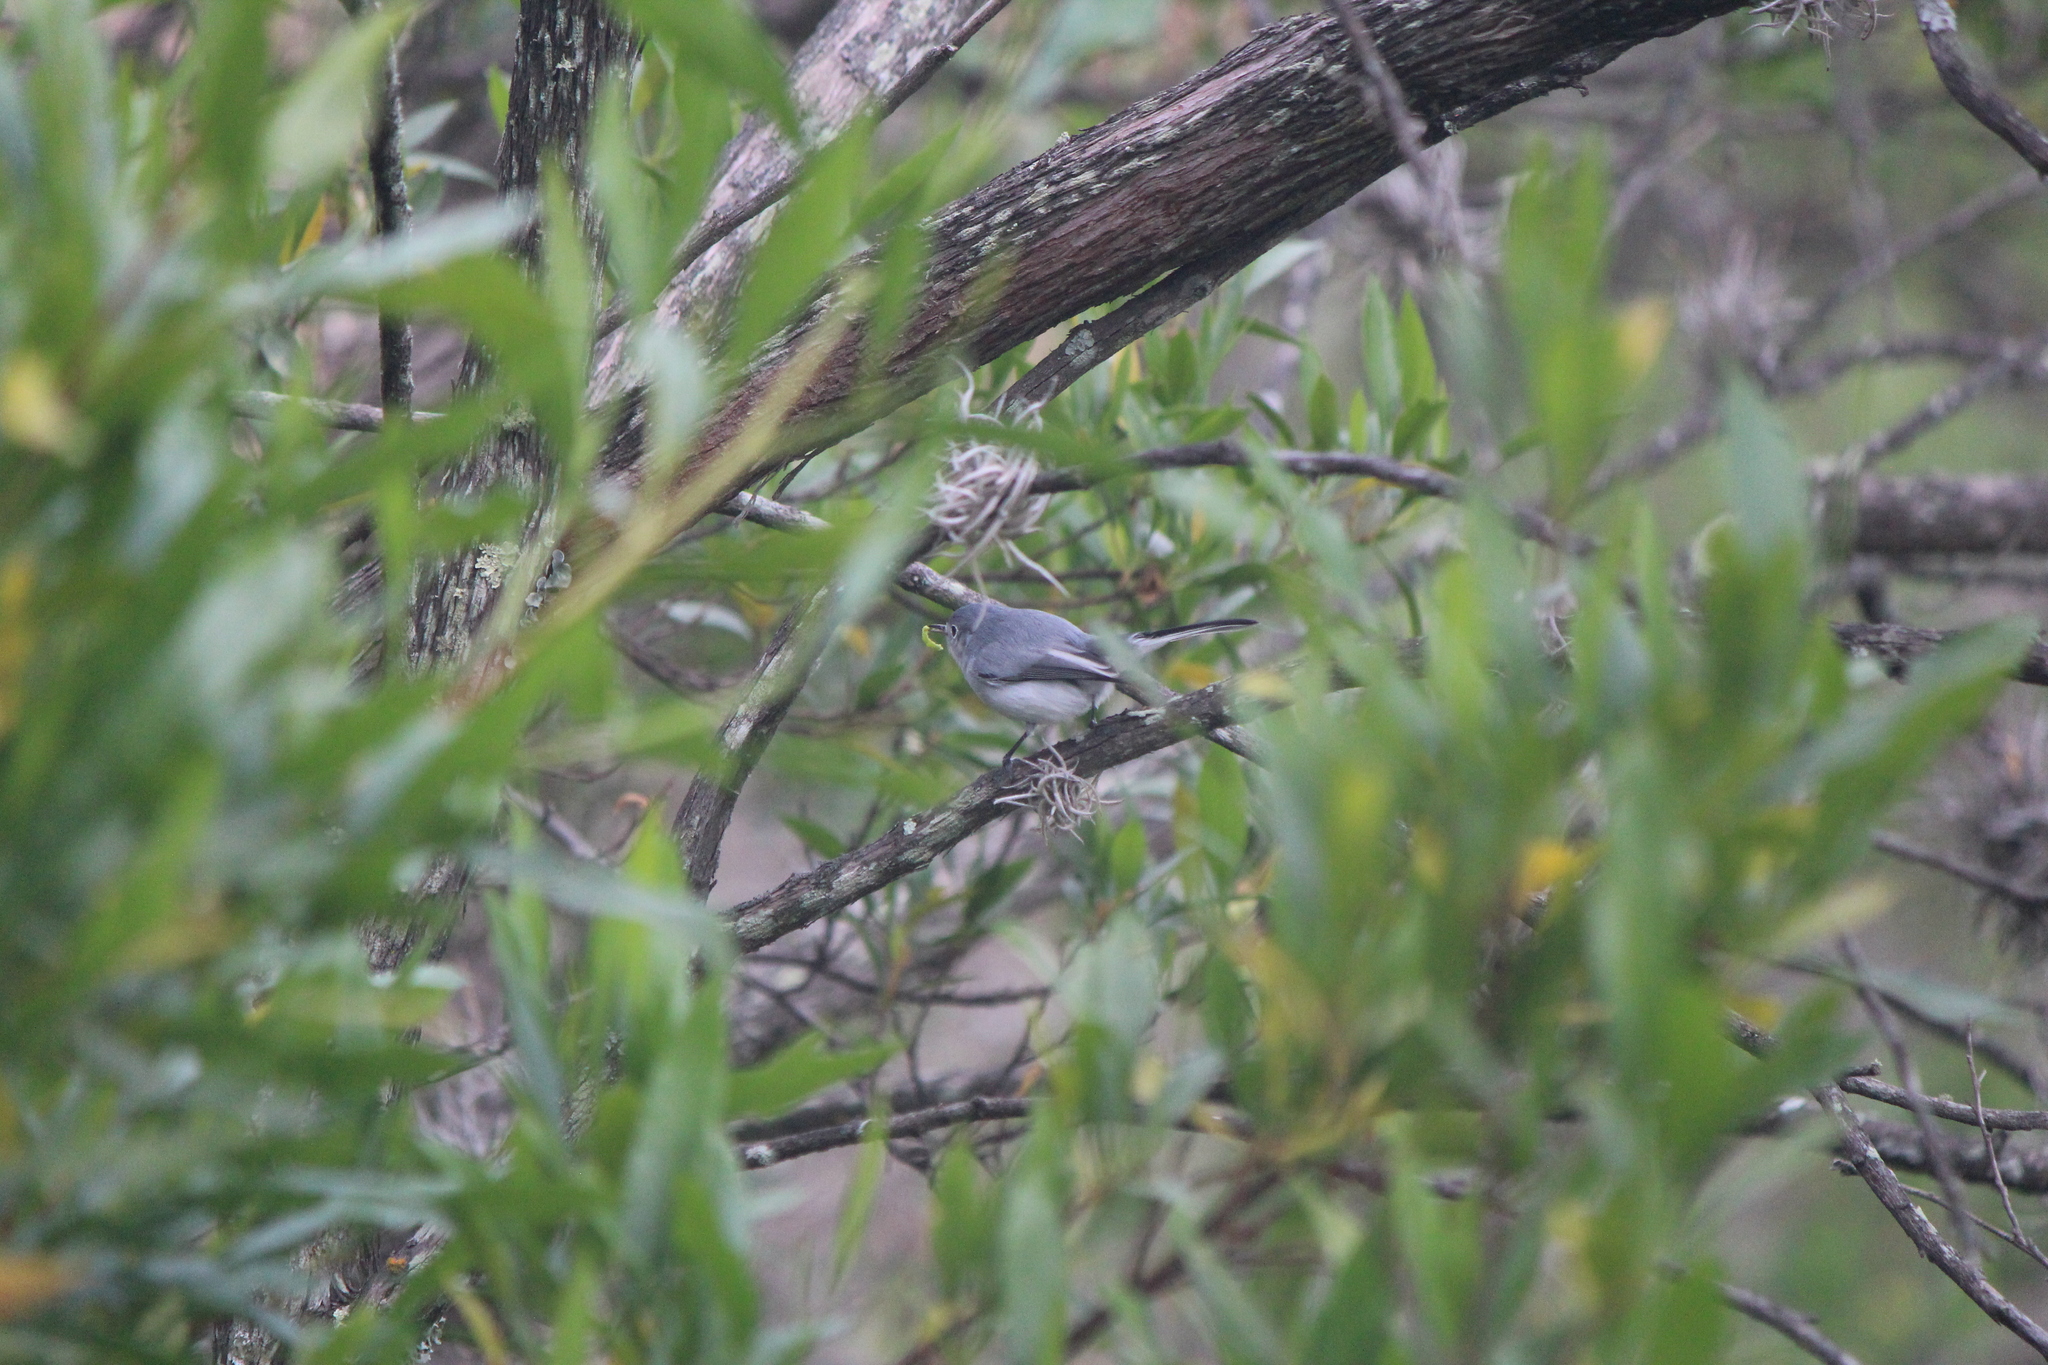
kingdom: Animalia
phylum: Chordata
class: Aves
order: Passeriformes
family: Polioptilidae
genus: Polioptila
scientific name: Polioptila caerulea
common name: Blue-gray gnatcatcher
